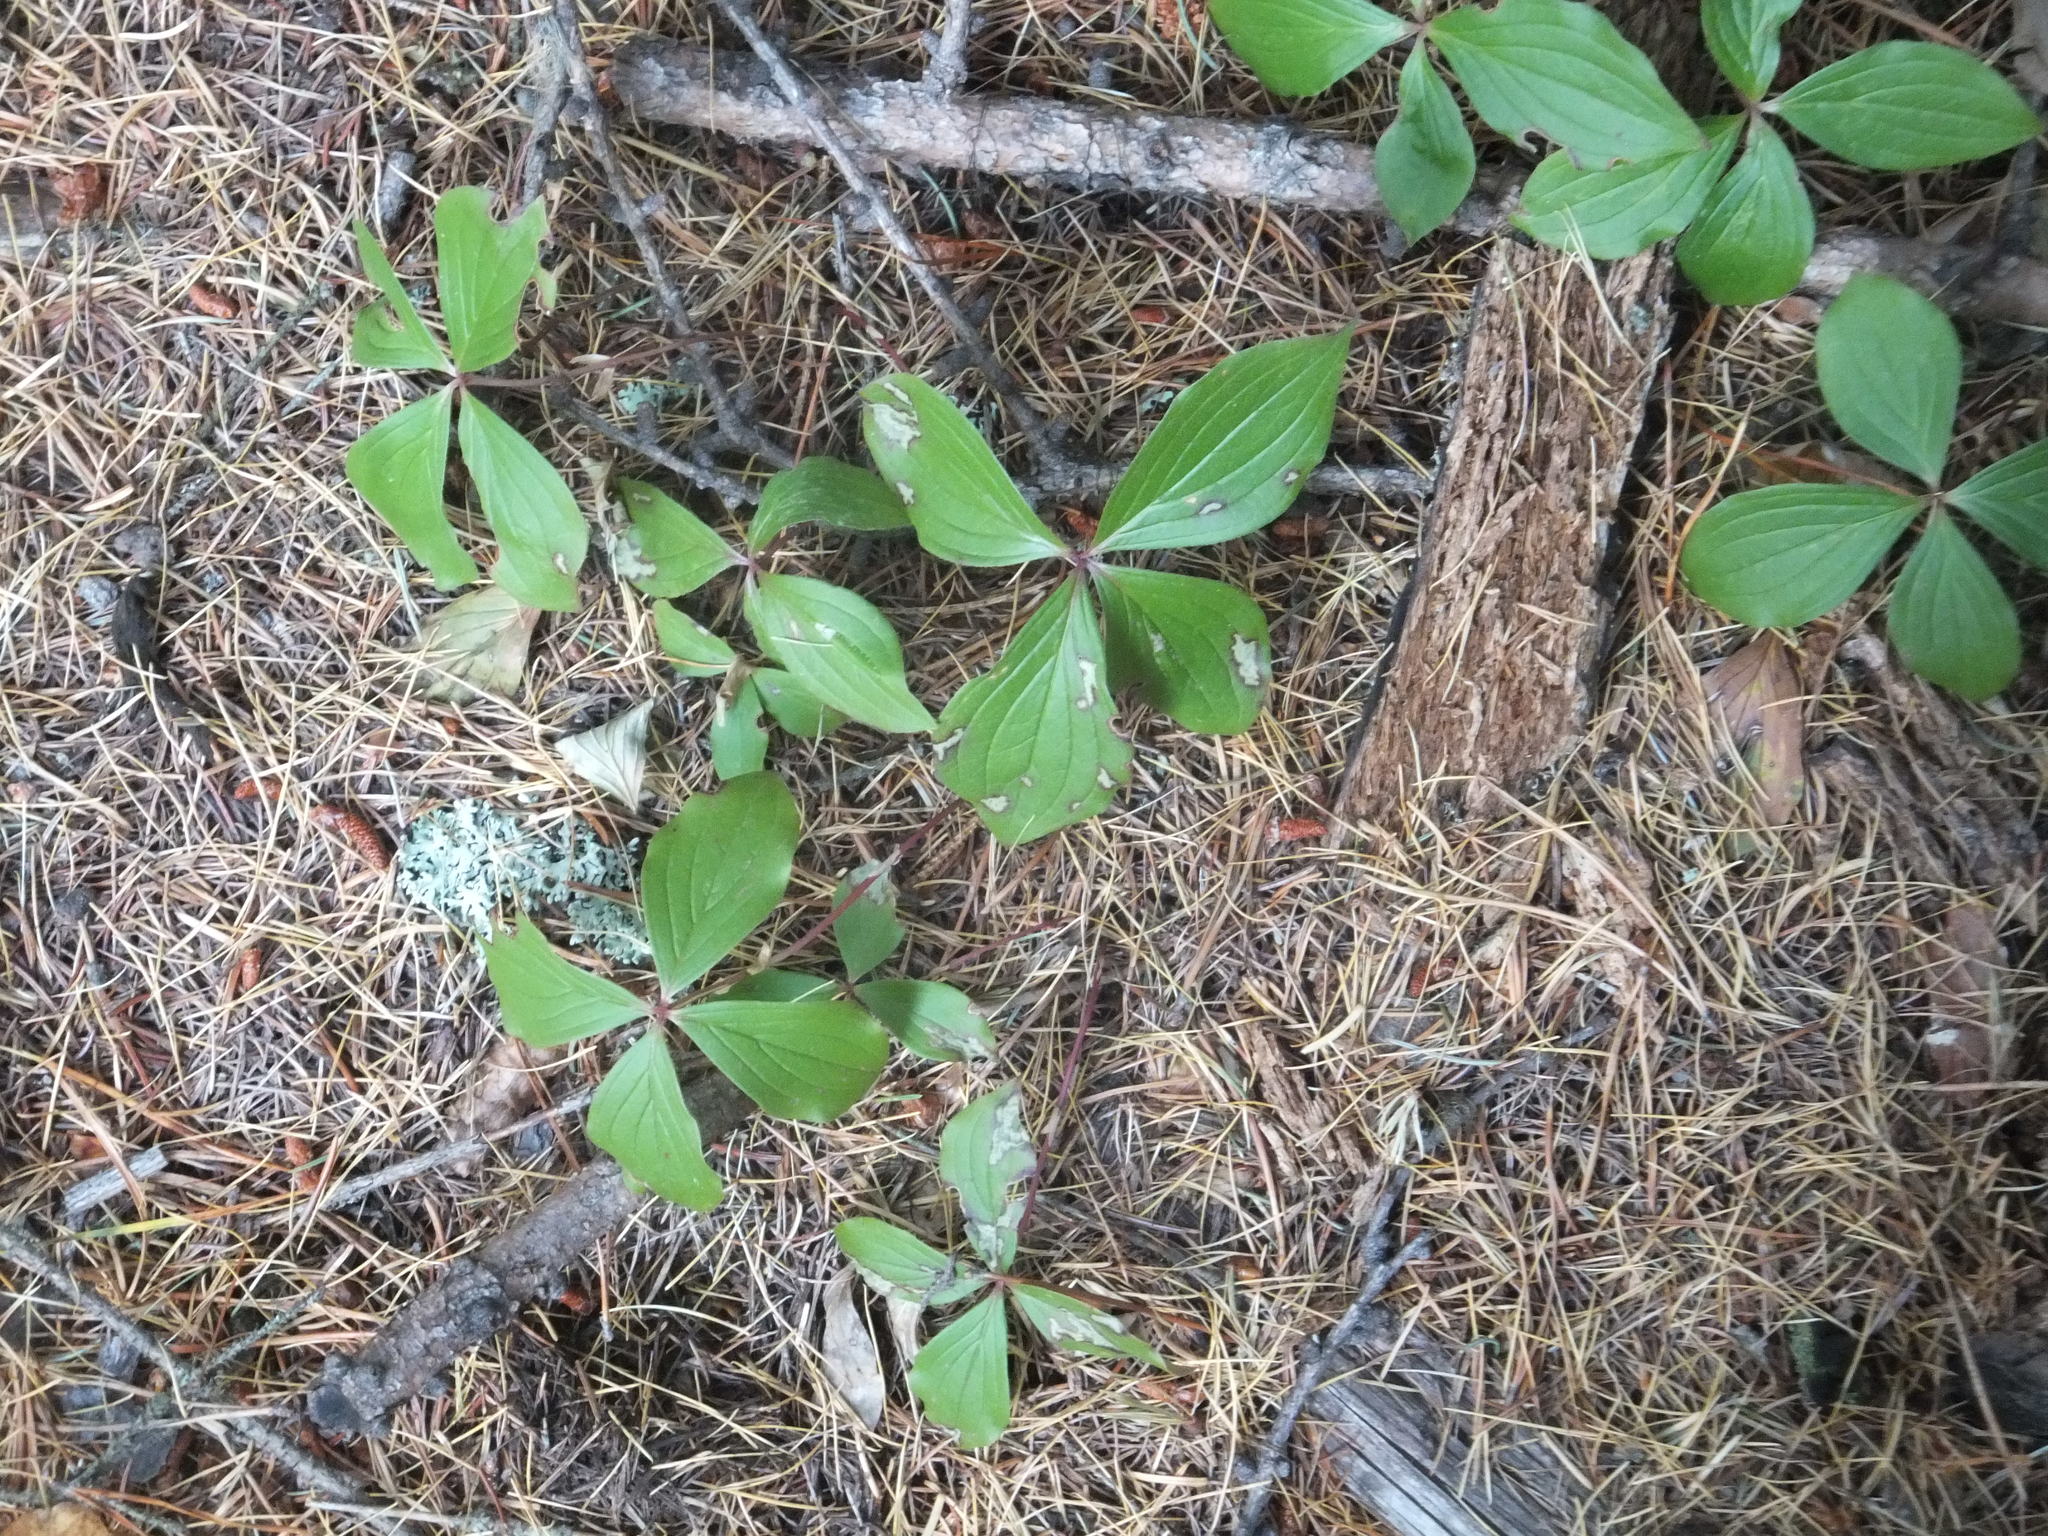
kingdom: Plantae
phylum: Tracheophyta
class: Magnoliopsida
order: Cornales
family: Cornaceae
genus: Cornus
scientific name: Cornus canadensis
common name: Creeping dogwood
